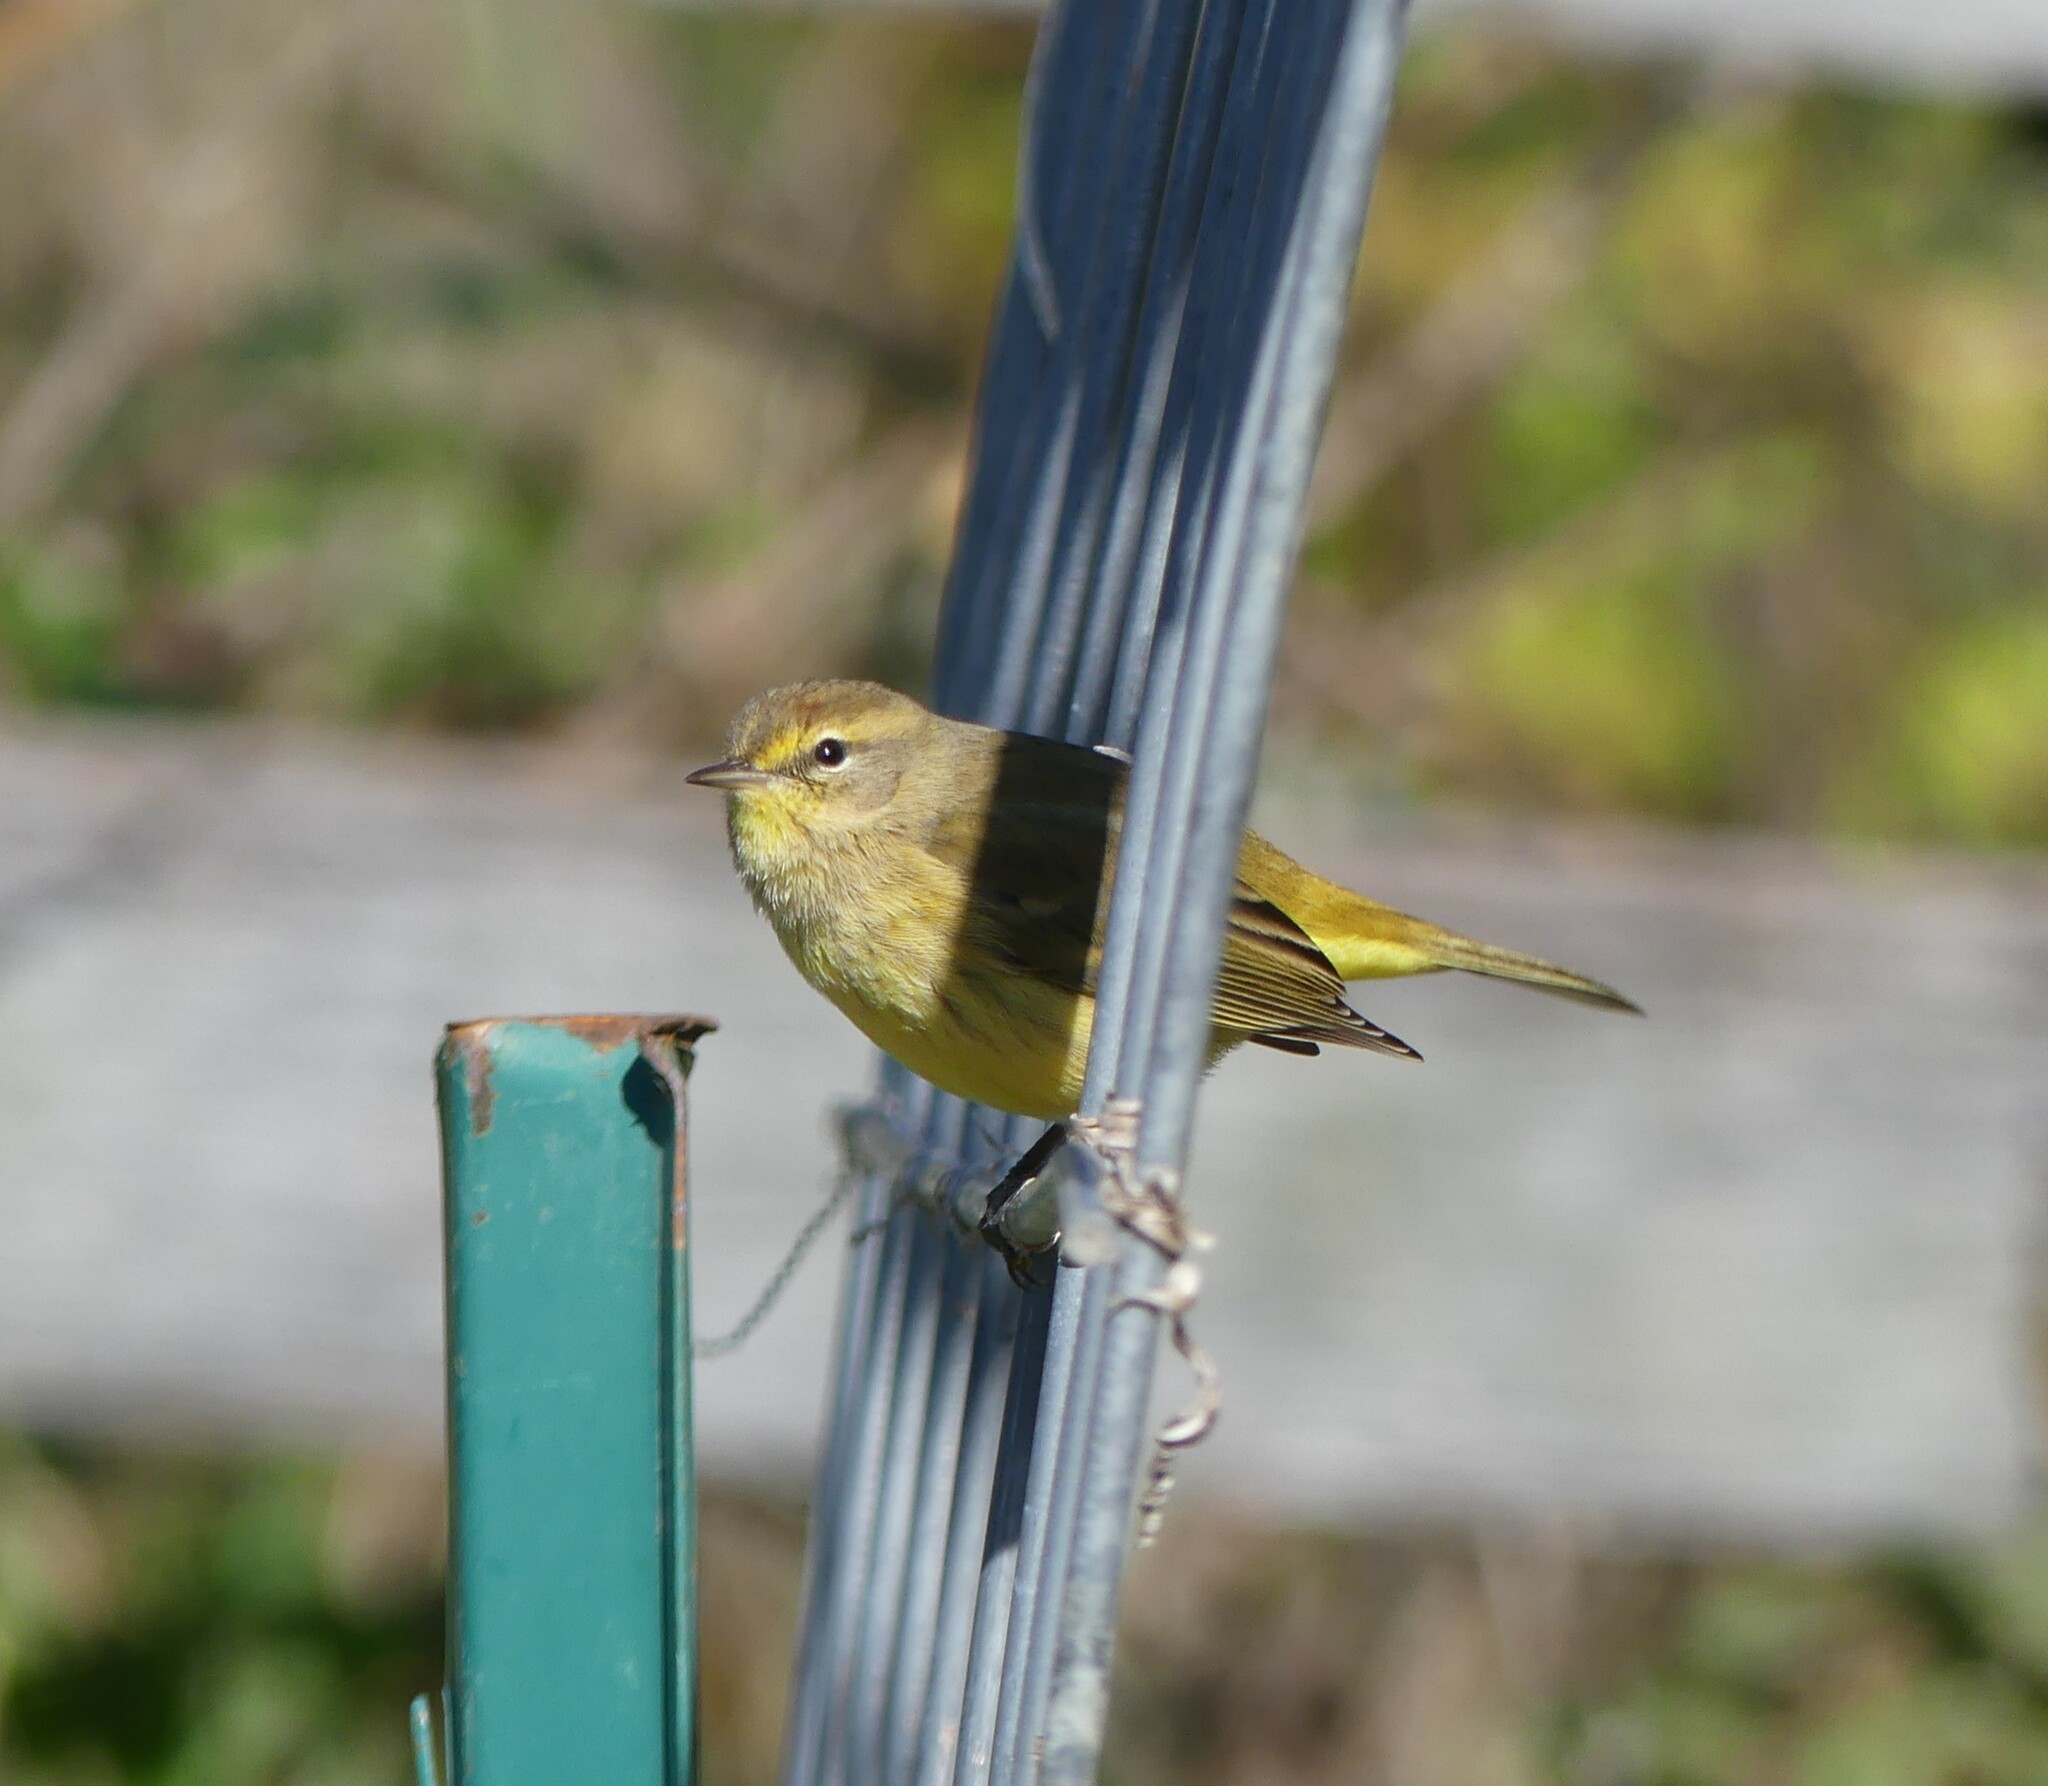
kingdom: Animalia
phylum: Chordata
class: Aves
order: Passeriformes
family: Parulidae
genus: Setophaga
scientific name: Setophaga palmarum
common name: Palm warbler
